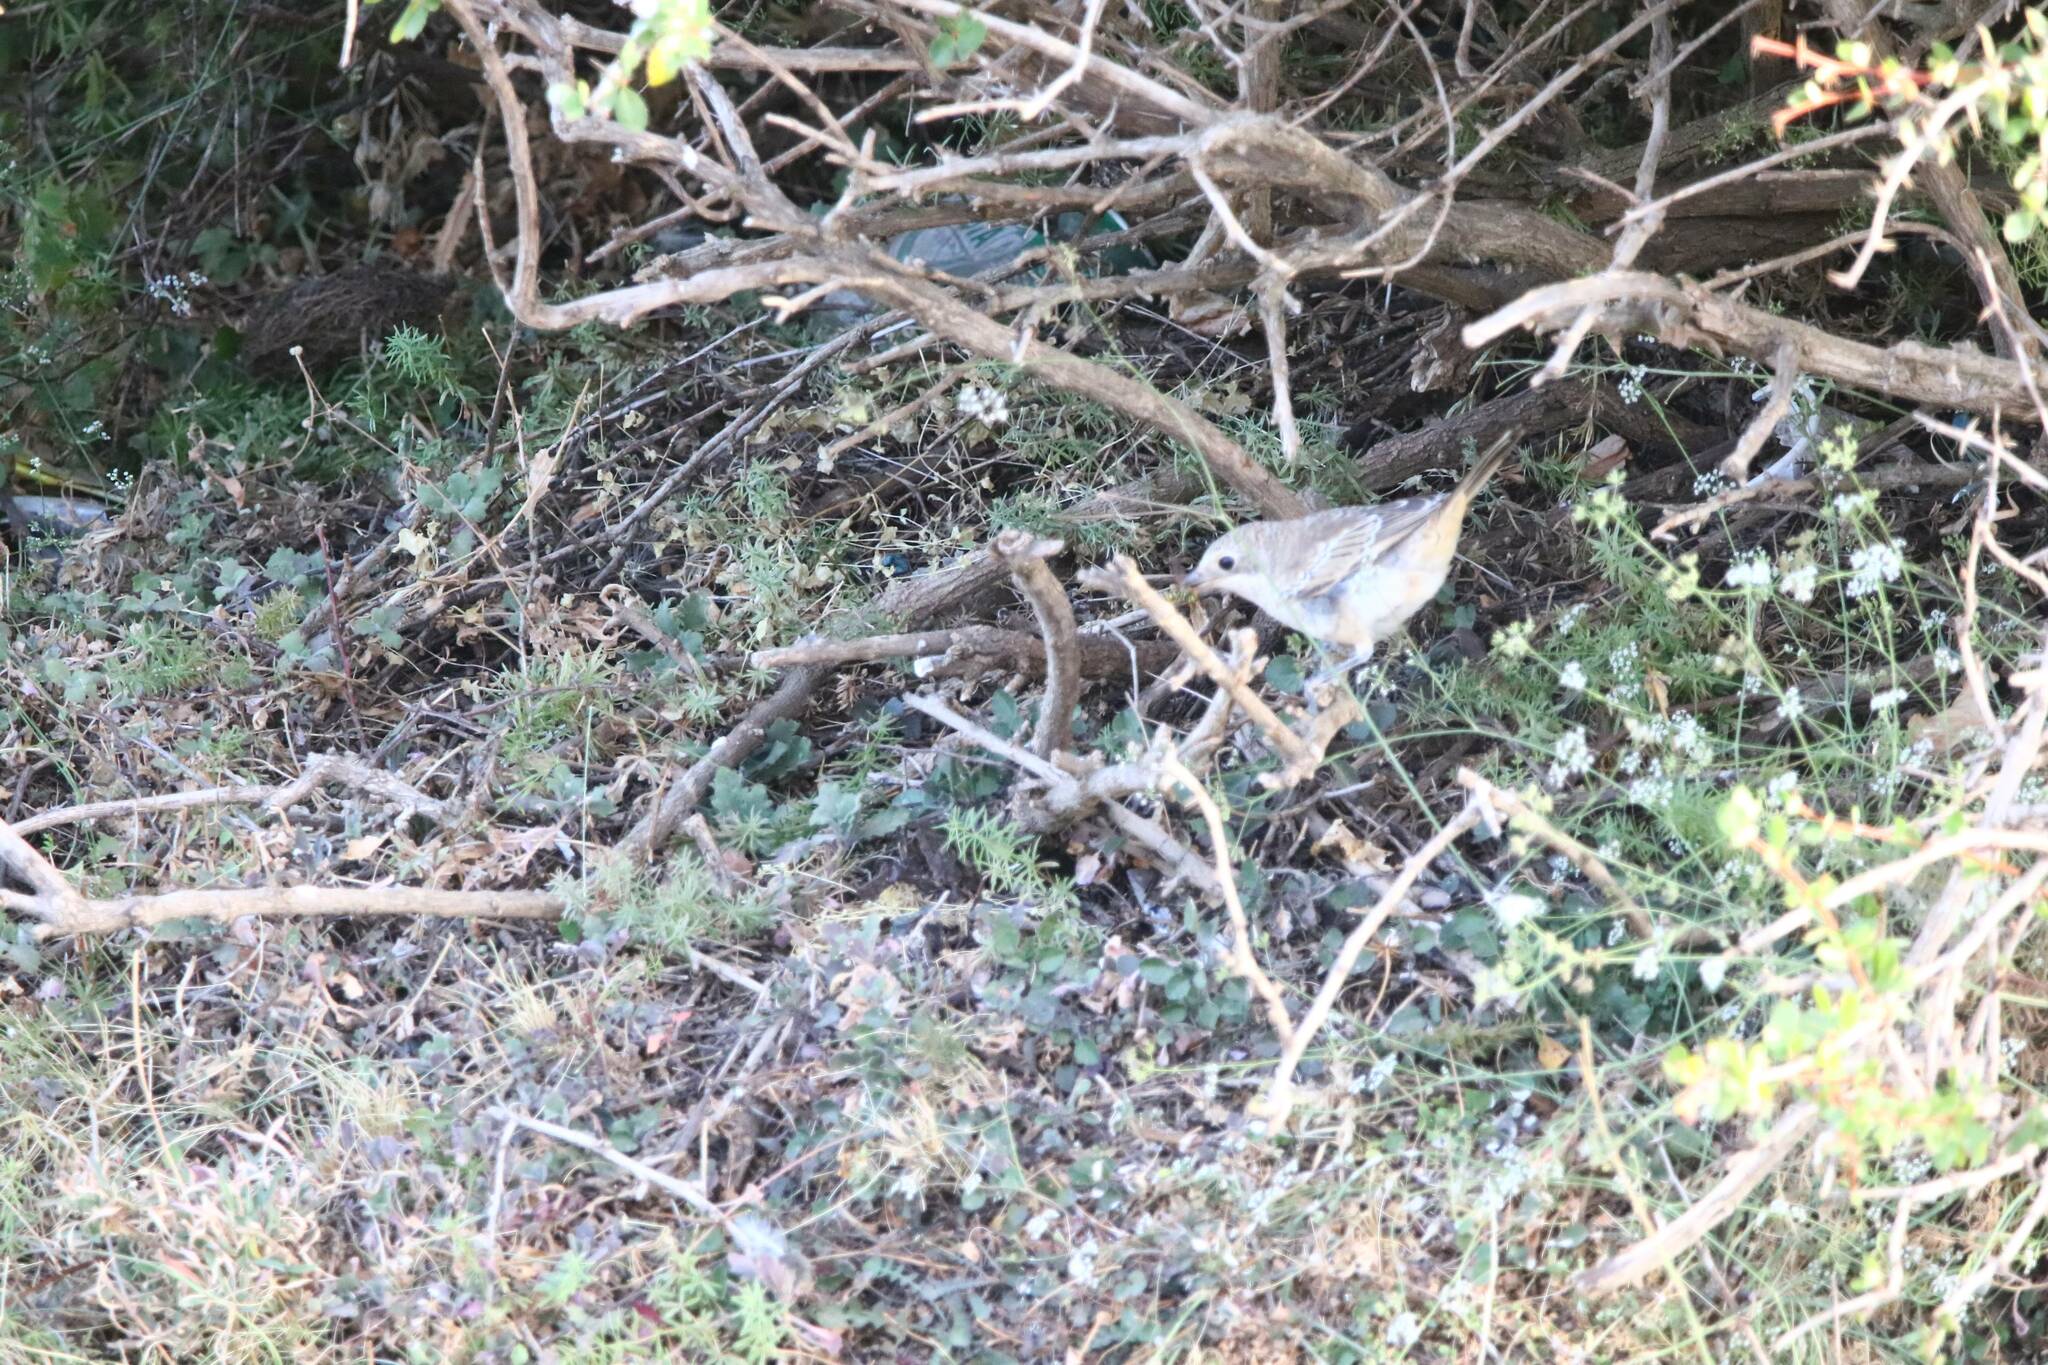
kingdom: Animalia
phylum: Chordata
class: Aves
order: Passeriformes
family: Laniidae
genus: Lanius
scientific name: Lanius senator
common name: Woodchat shrike
